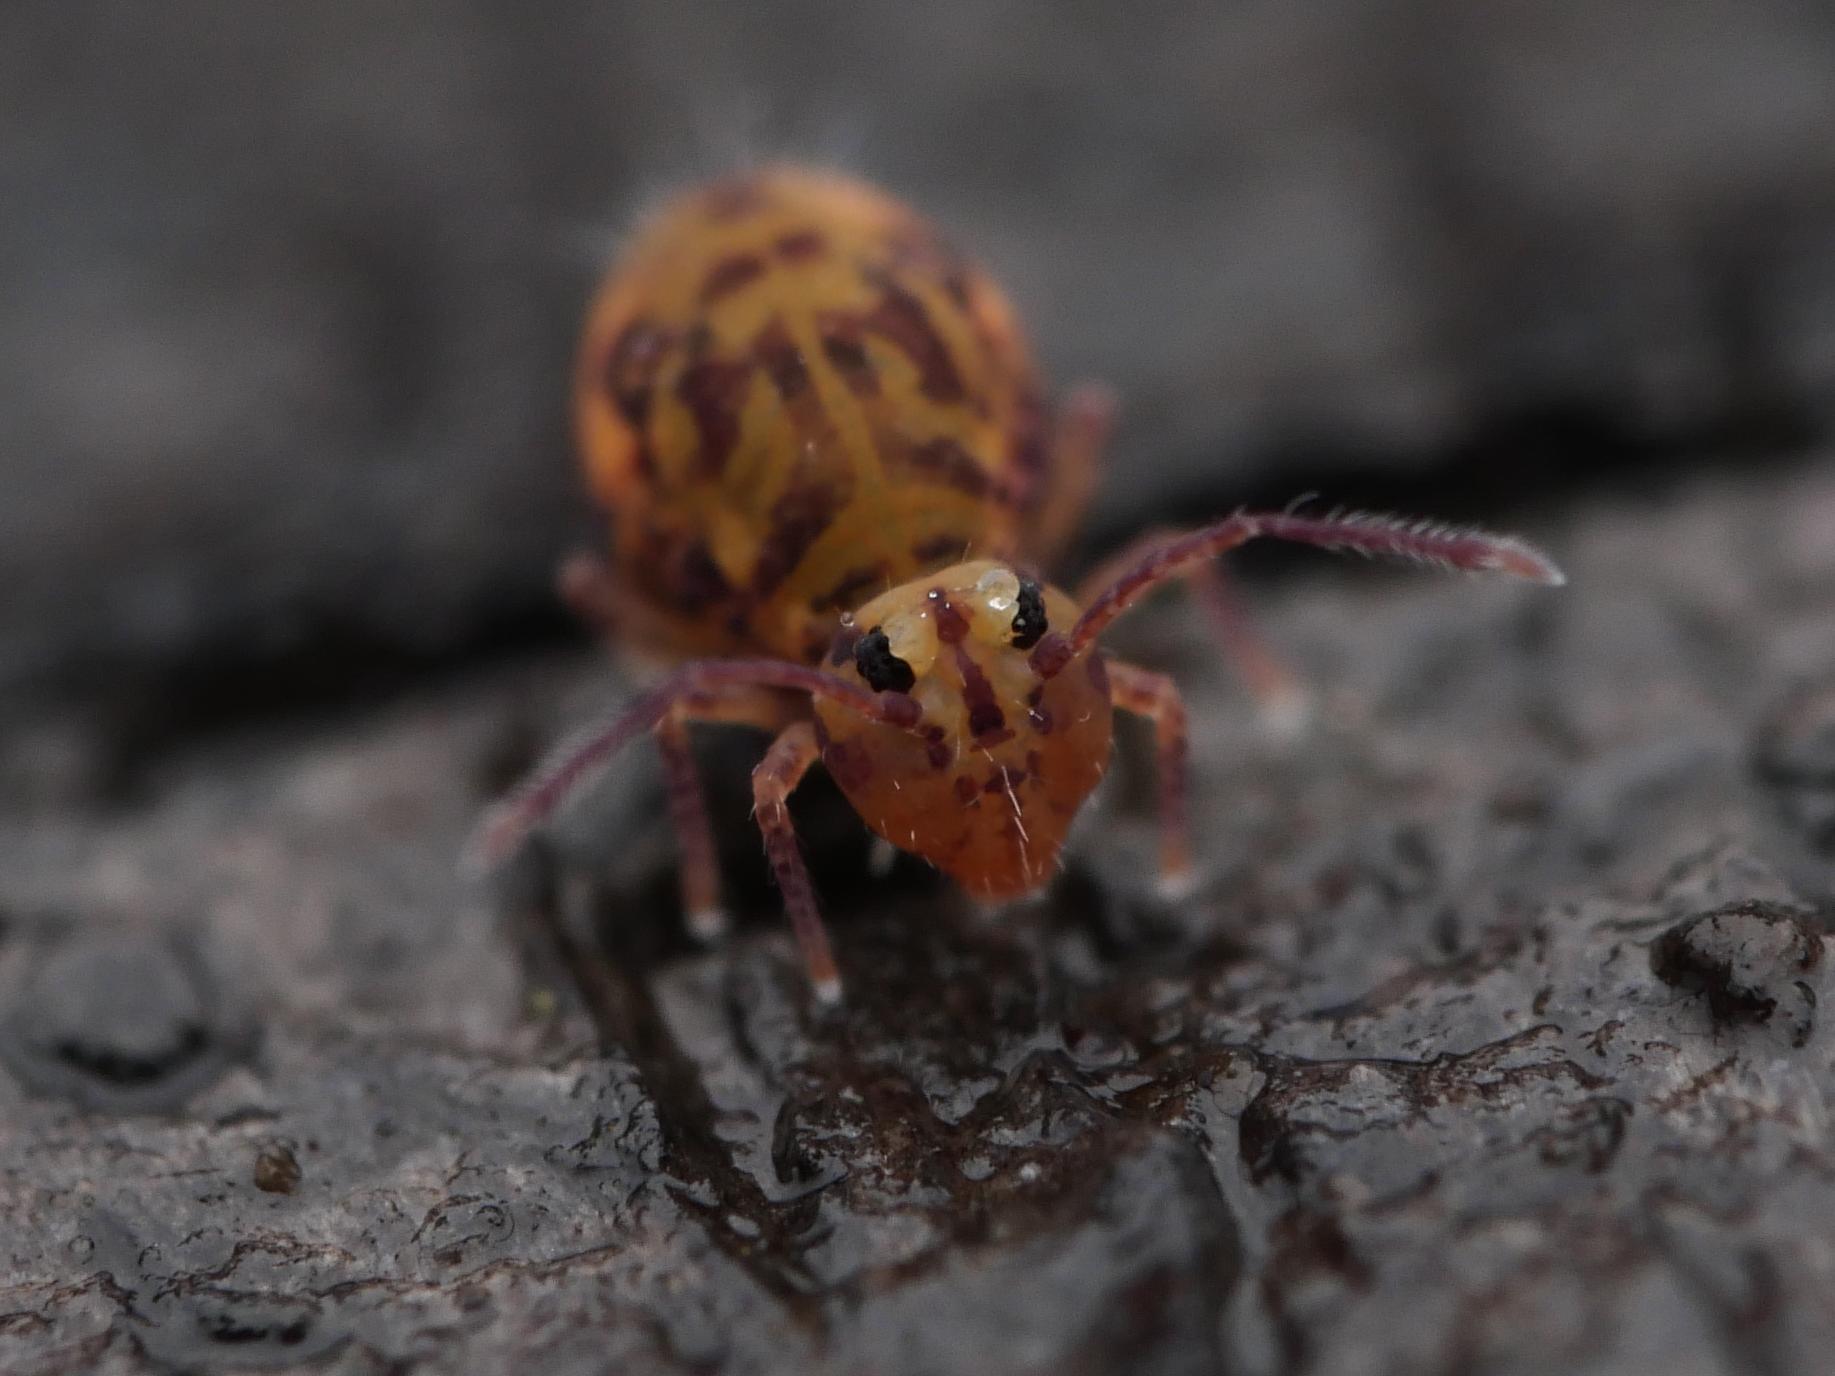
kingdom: Animalia
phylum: Arthropoda
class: Collembola
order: Symphypleona
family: Dicyrtomidae
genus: Dicyrtomina
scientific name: Dicyrtomina ornata
